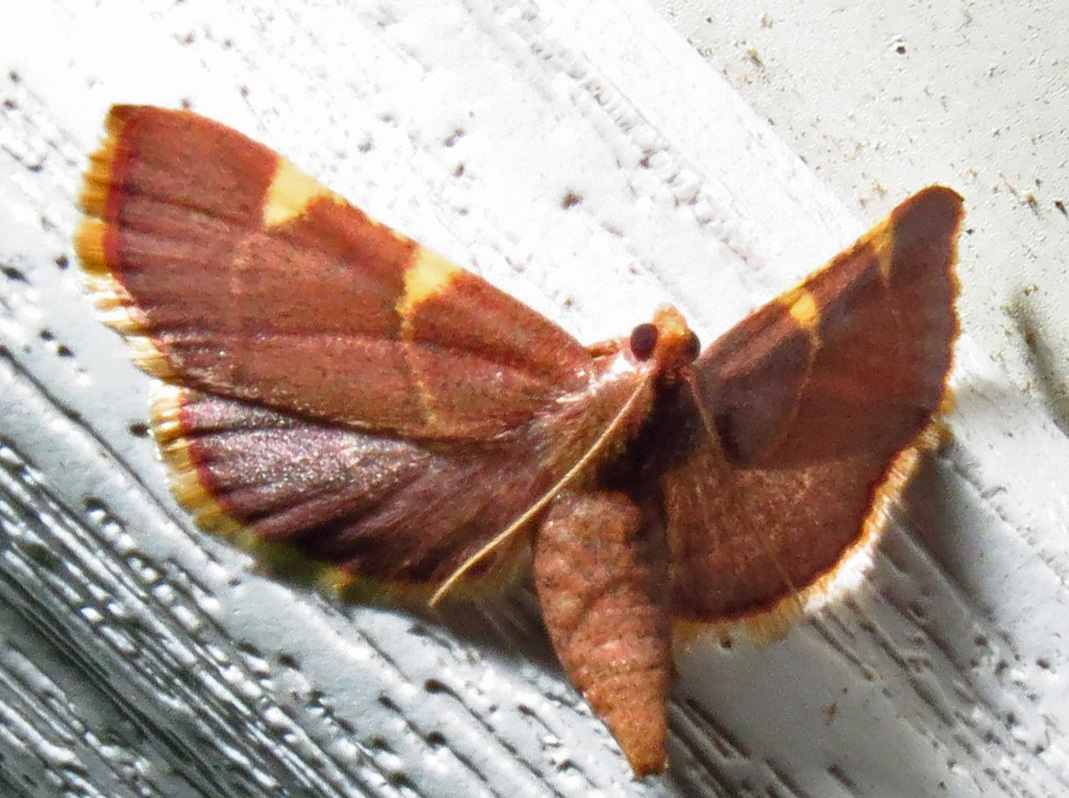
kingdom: Animalia
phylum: Arthropoda
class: Insecta
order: Lepidoptera
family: Pyralidae
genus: Hypsopygia
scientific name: Hypsopygia olinalis
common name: Yellow-fringed dolichomia moth
